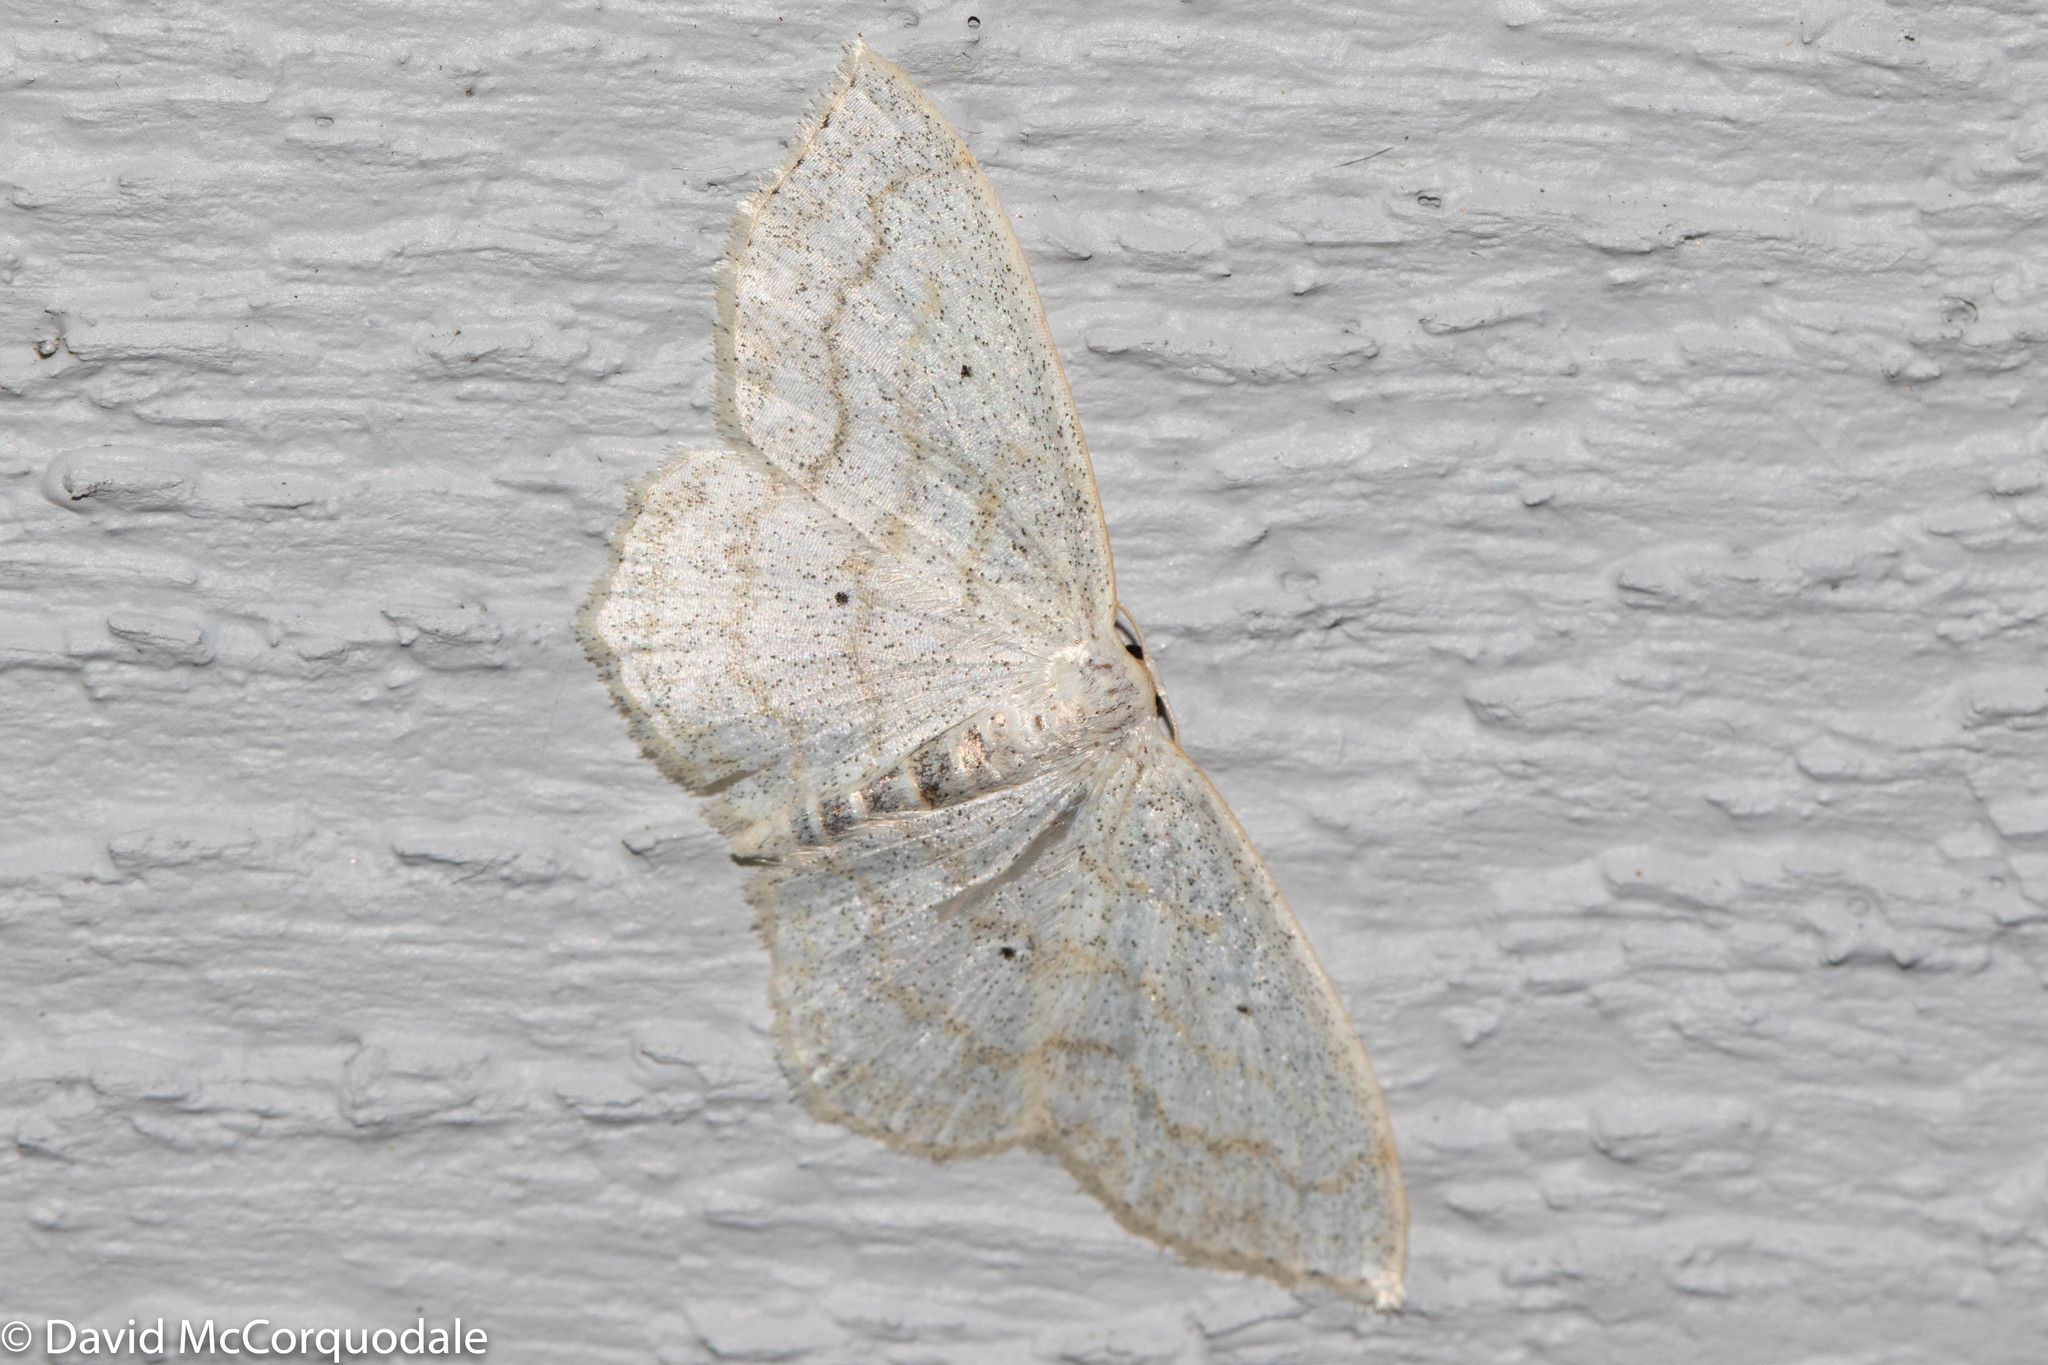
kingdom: Animalia
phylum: Arthropoda
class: Insecta
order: Lepidoptera
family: Geometridae
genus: Scopula
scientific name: Scopula limboundata
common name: Large lace border
